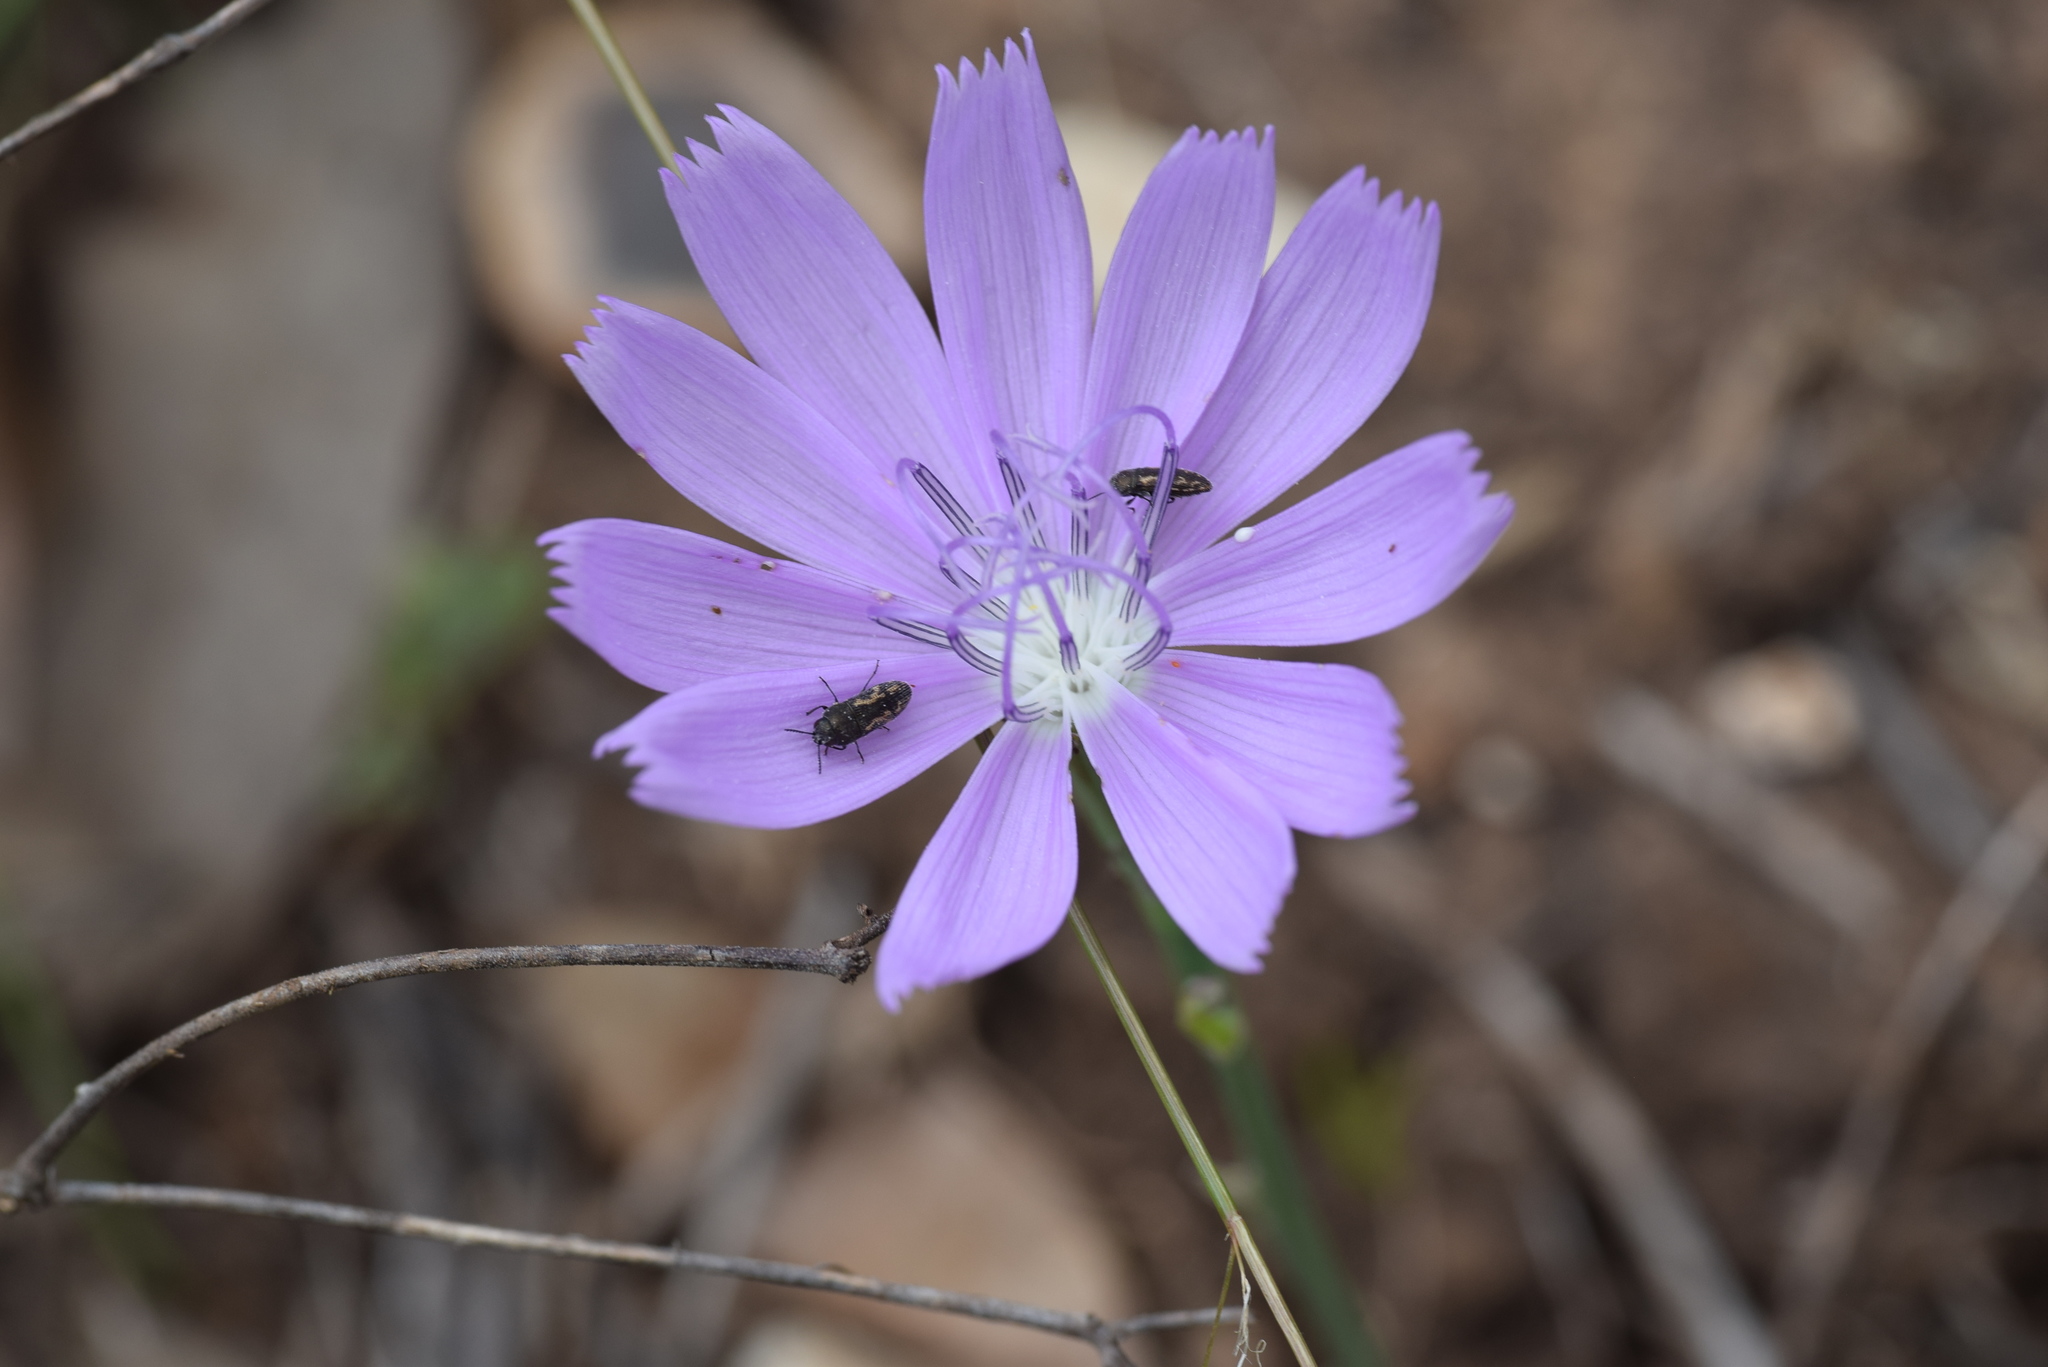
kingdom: Plantae
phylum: Tracheophyta
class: Magnoliopsida
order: Asterales
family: Asteraceae
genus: Lygodesmia
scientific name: Lygodesmia texana
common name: Texas skeleton-plant
